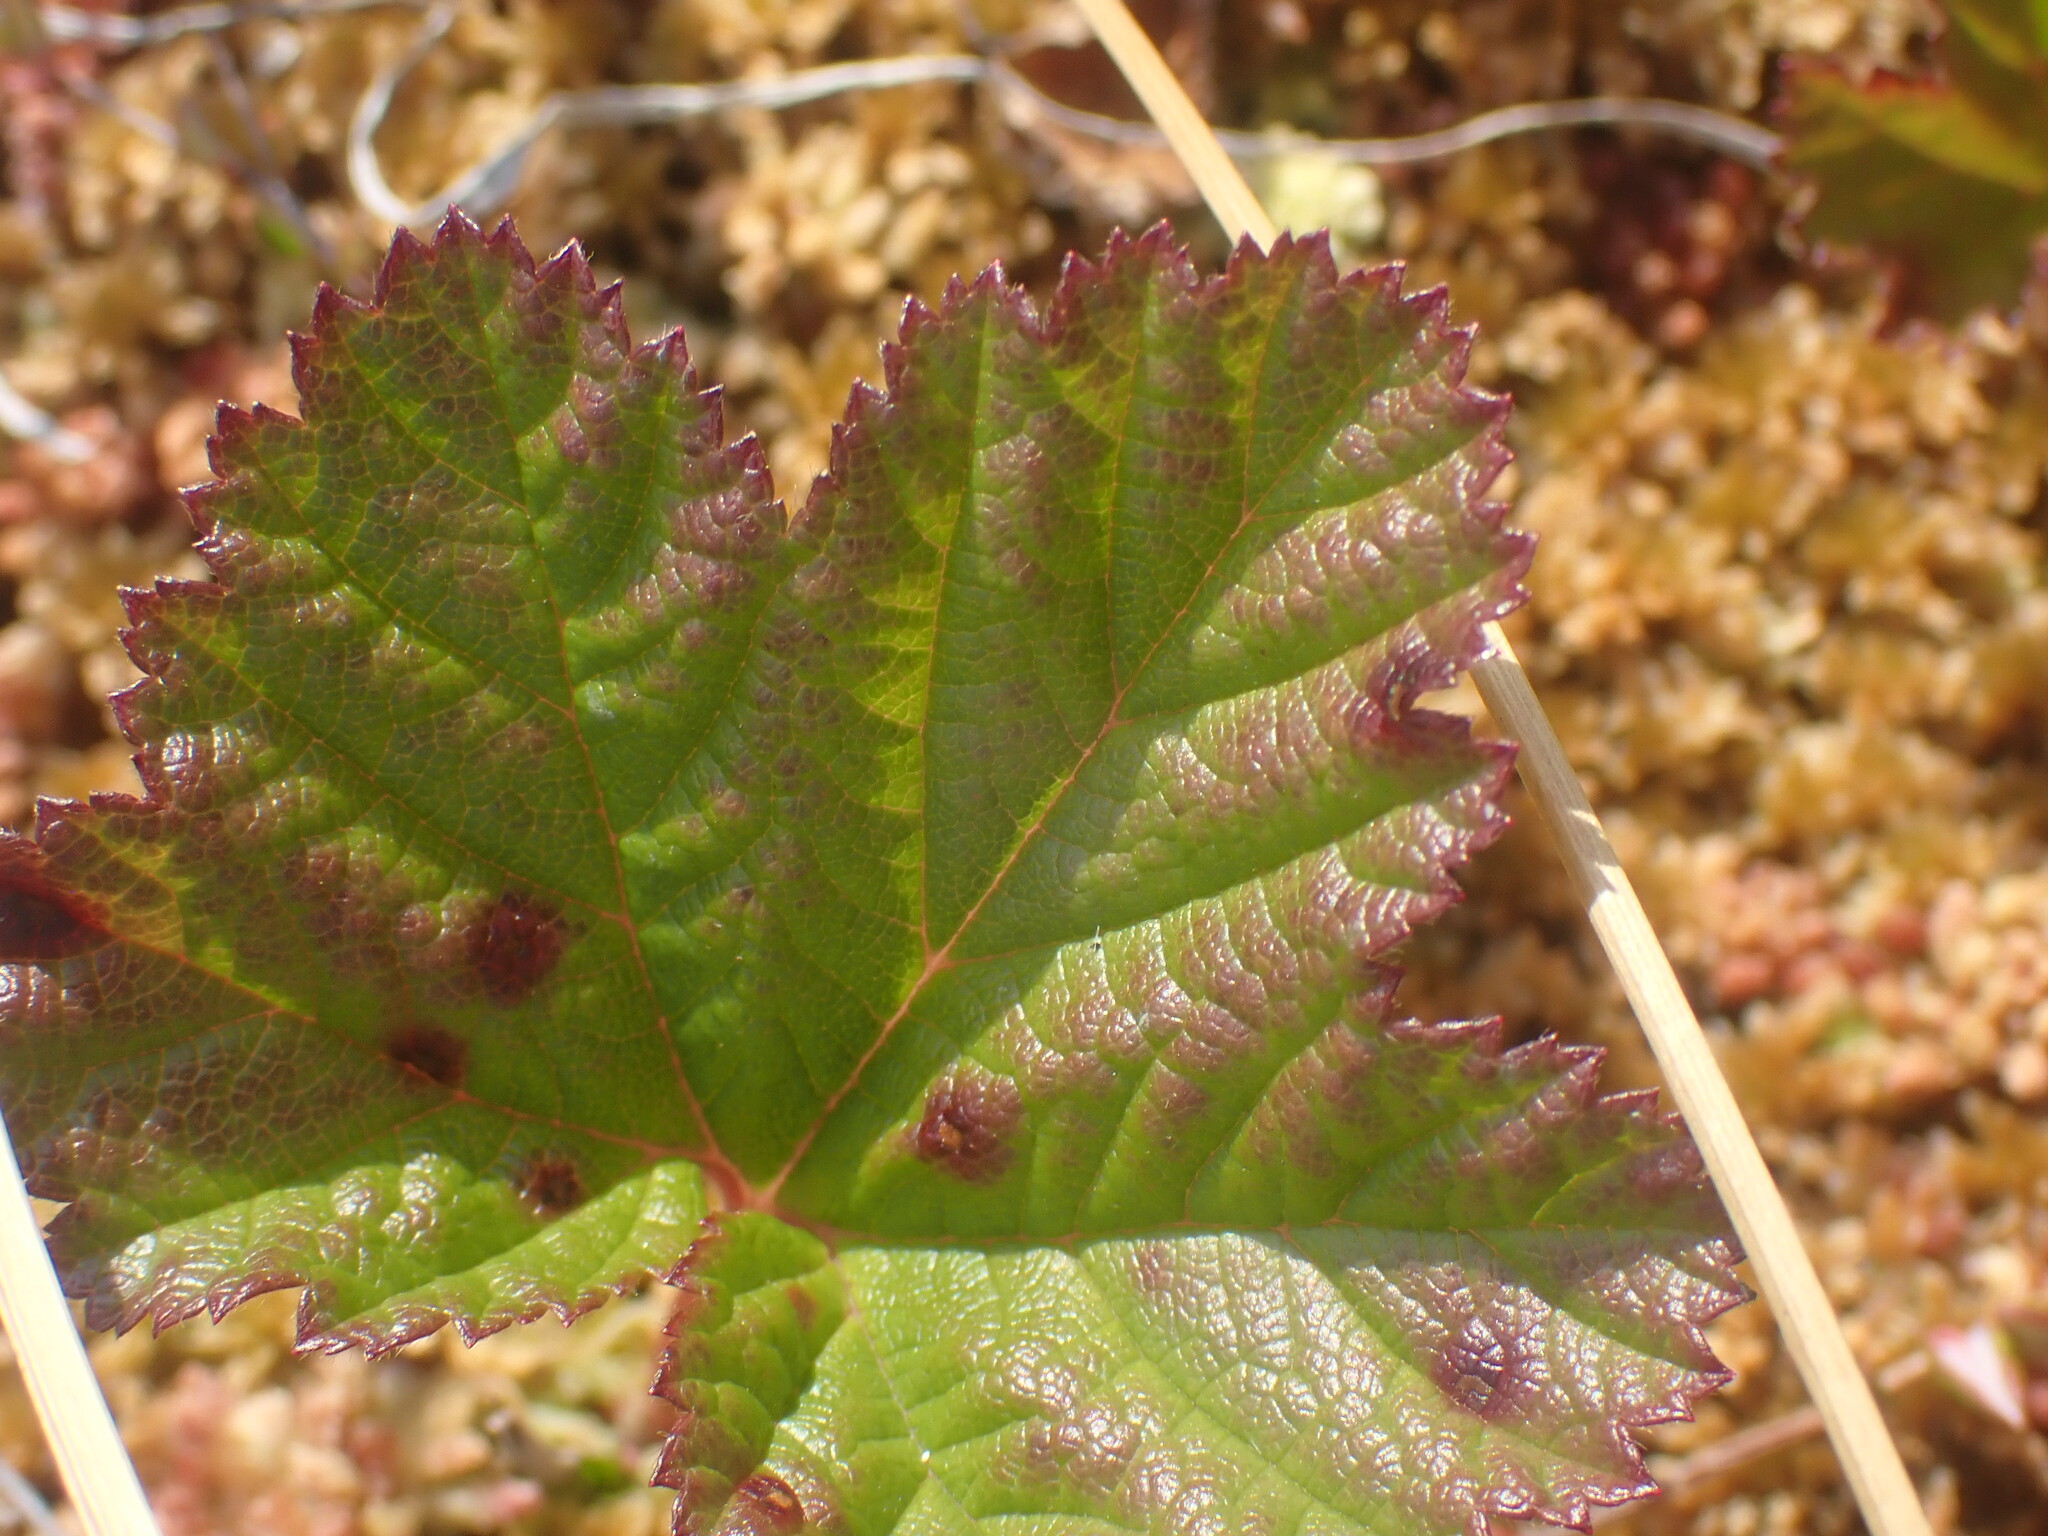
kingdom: Plantae
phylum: Tracheophyta
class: Magnoliopsida
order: Rosales
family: Rosaceae
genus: Rubus
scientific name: Rubus chamaemorus
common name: Cloudberry
